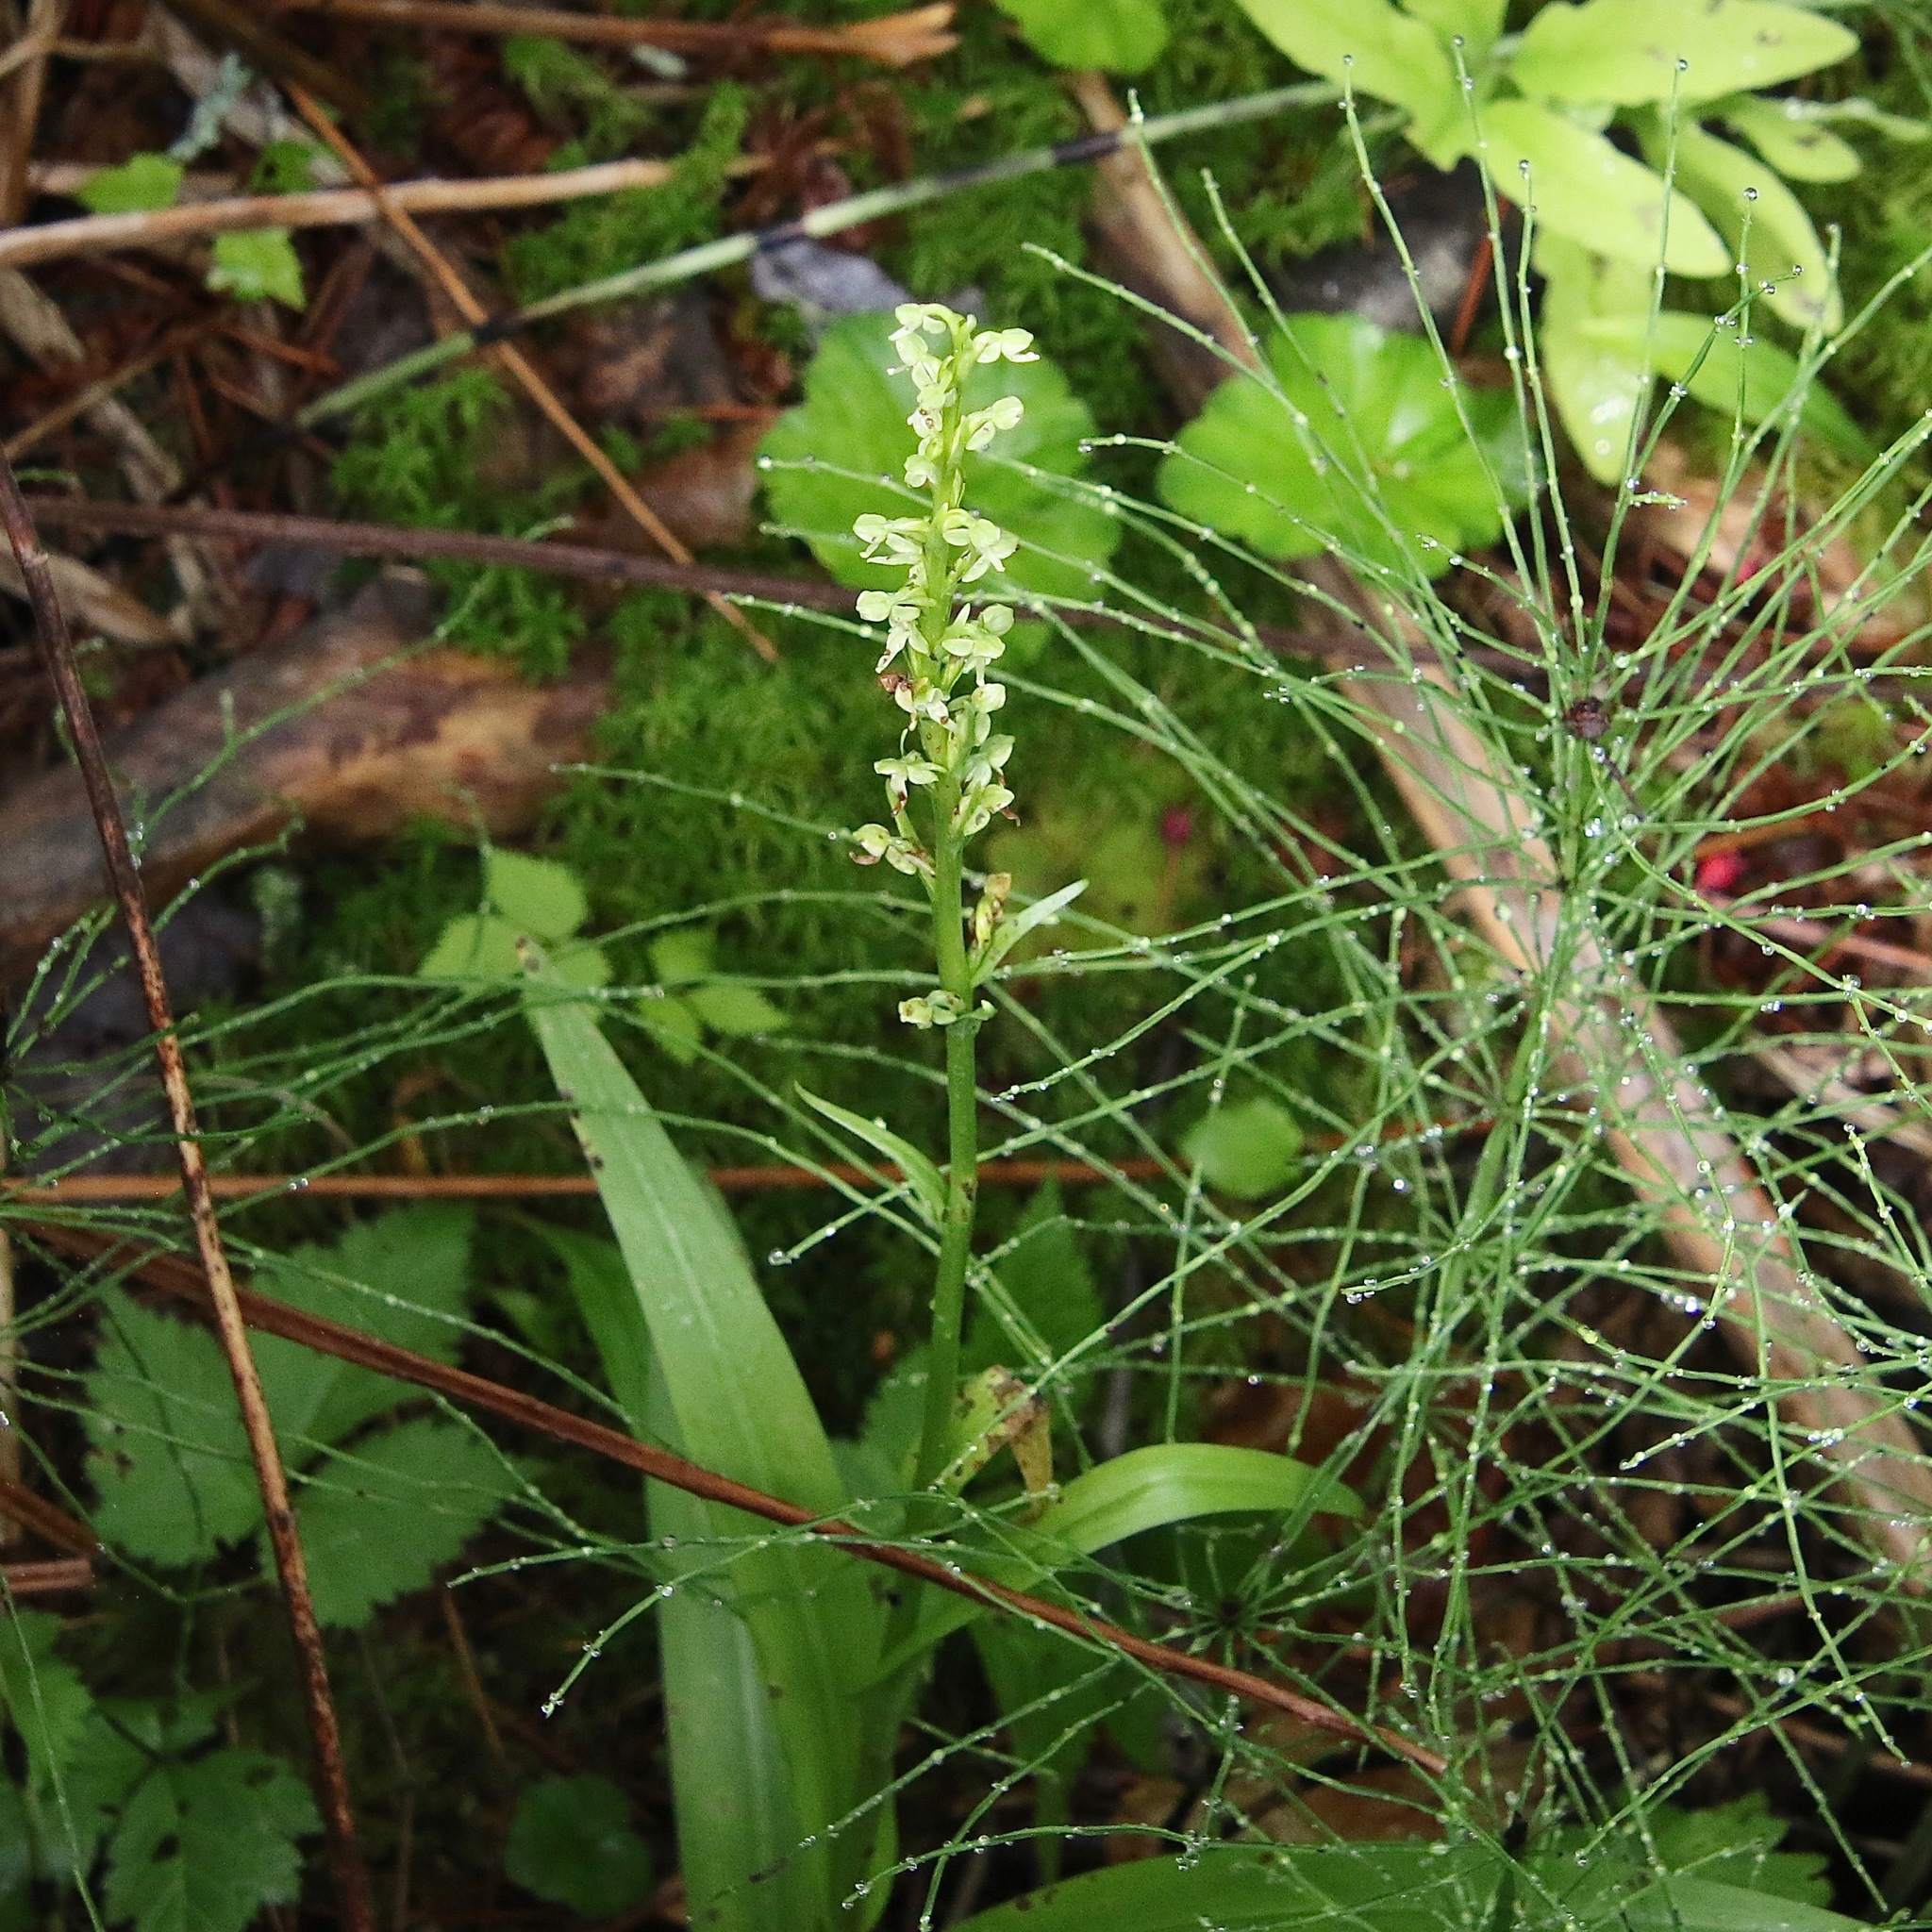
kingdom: Plantae
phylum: Tracheophyta
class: Liliopsida
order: Asparagales
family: Orchidaceae
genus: Platanthera
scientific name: Platanthera huronensis
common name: Fragrant green orchid
